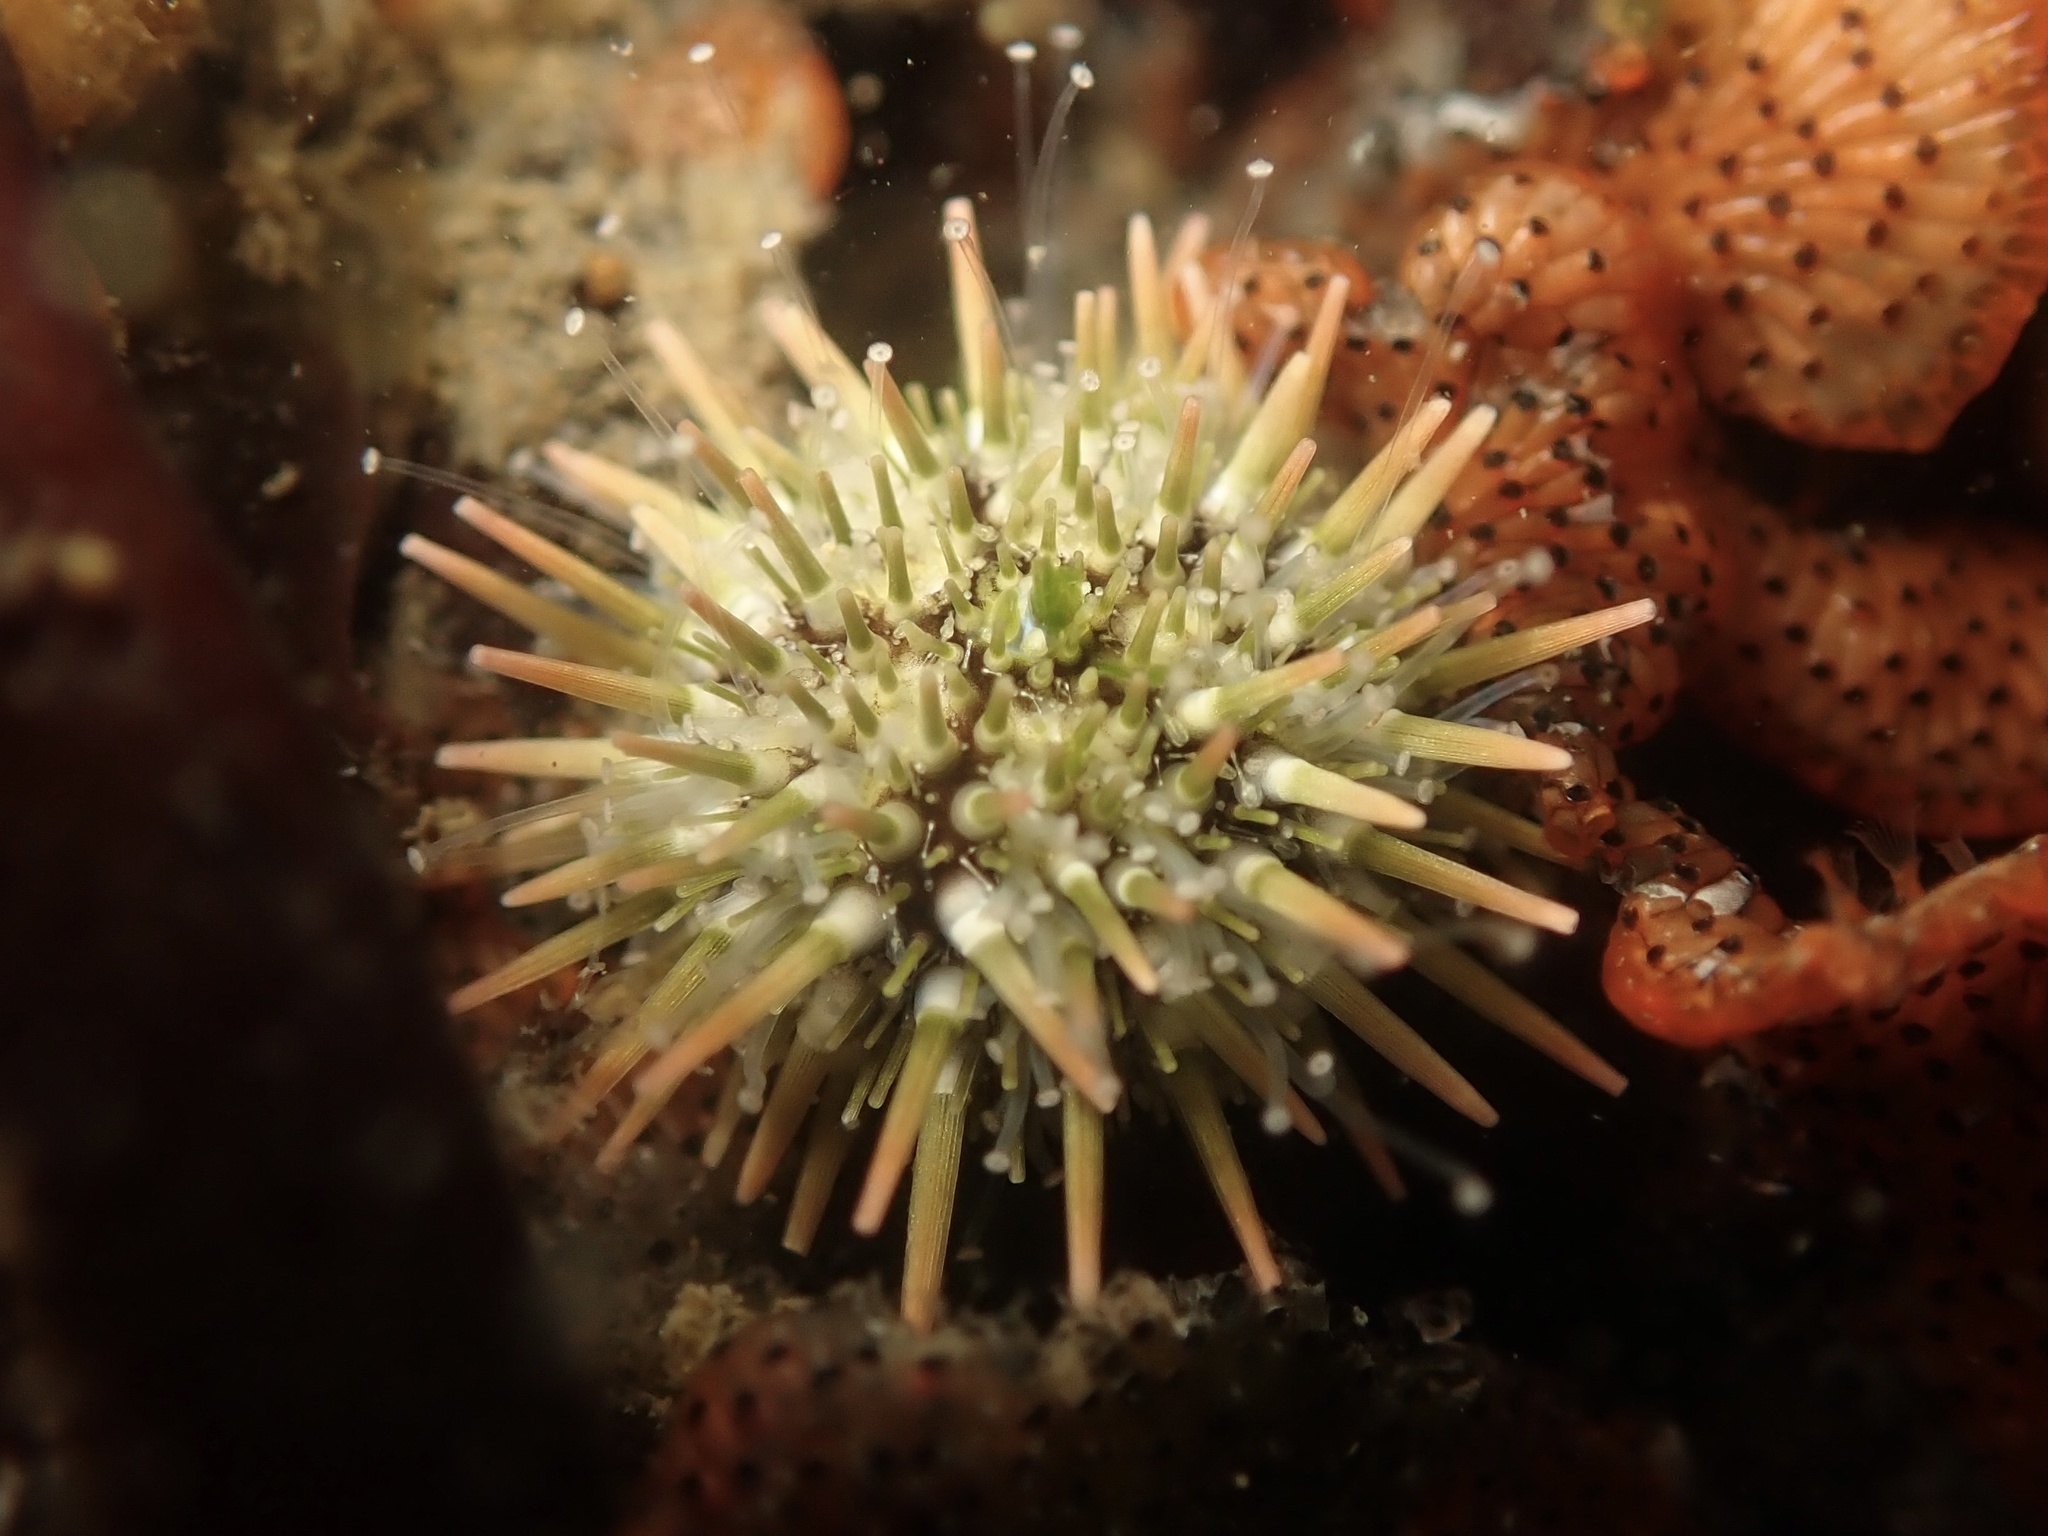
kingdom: Animalia
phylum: Echinodermata
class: Echinoidea
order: Camarodonta
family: Strongylocentrotidae
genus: Strongylocentrotus
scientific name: Strongylocentrotus purpuratus
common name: Purple sea urchin
